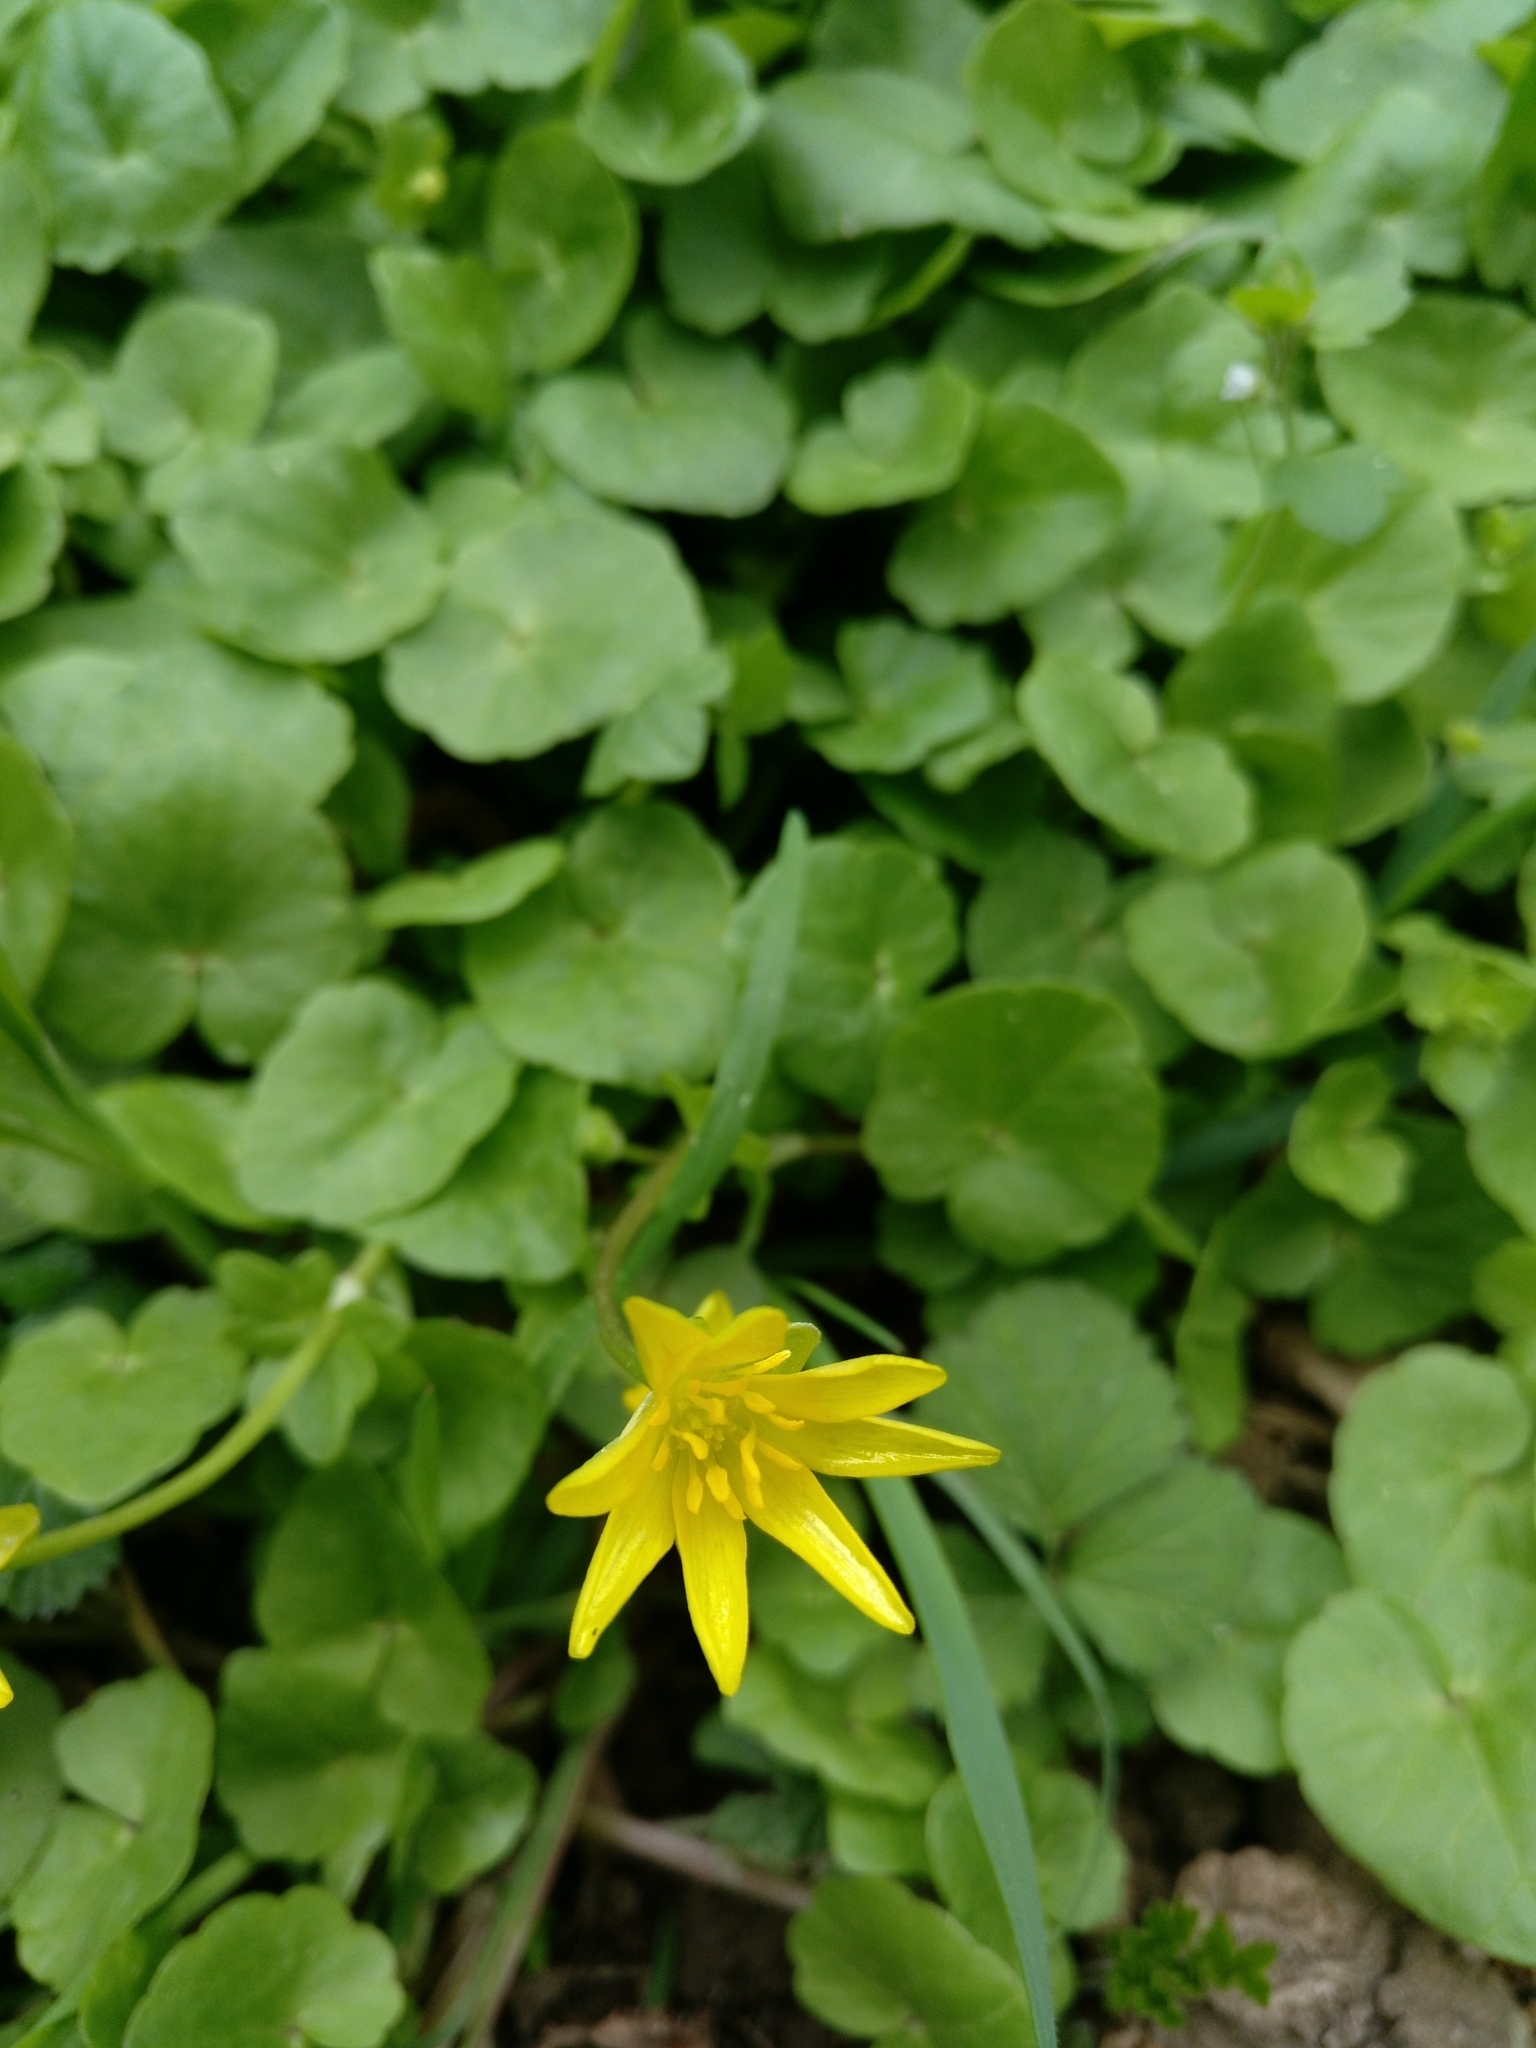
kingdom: Plantae
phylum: Tracheophyta
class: Magnoliopsida
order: Ranunculales
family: Ranunculaceae
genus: Ficaria
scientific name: Ficaria verna
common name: Lesser celandine
